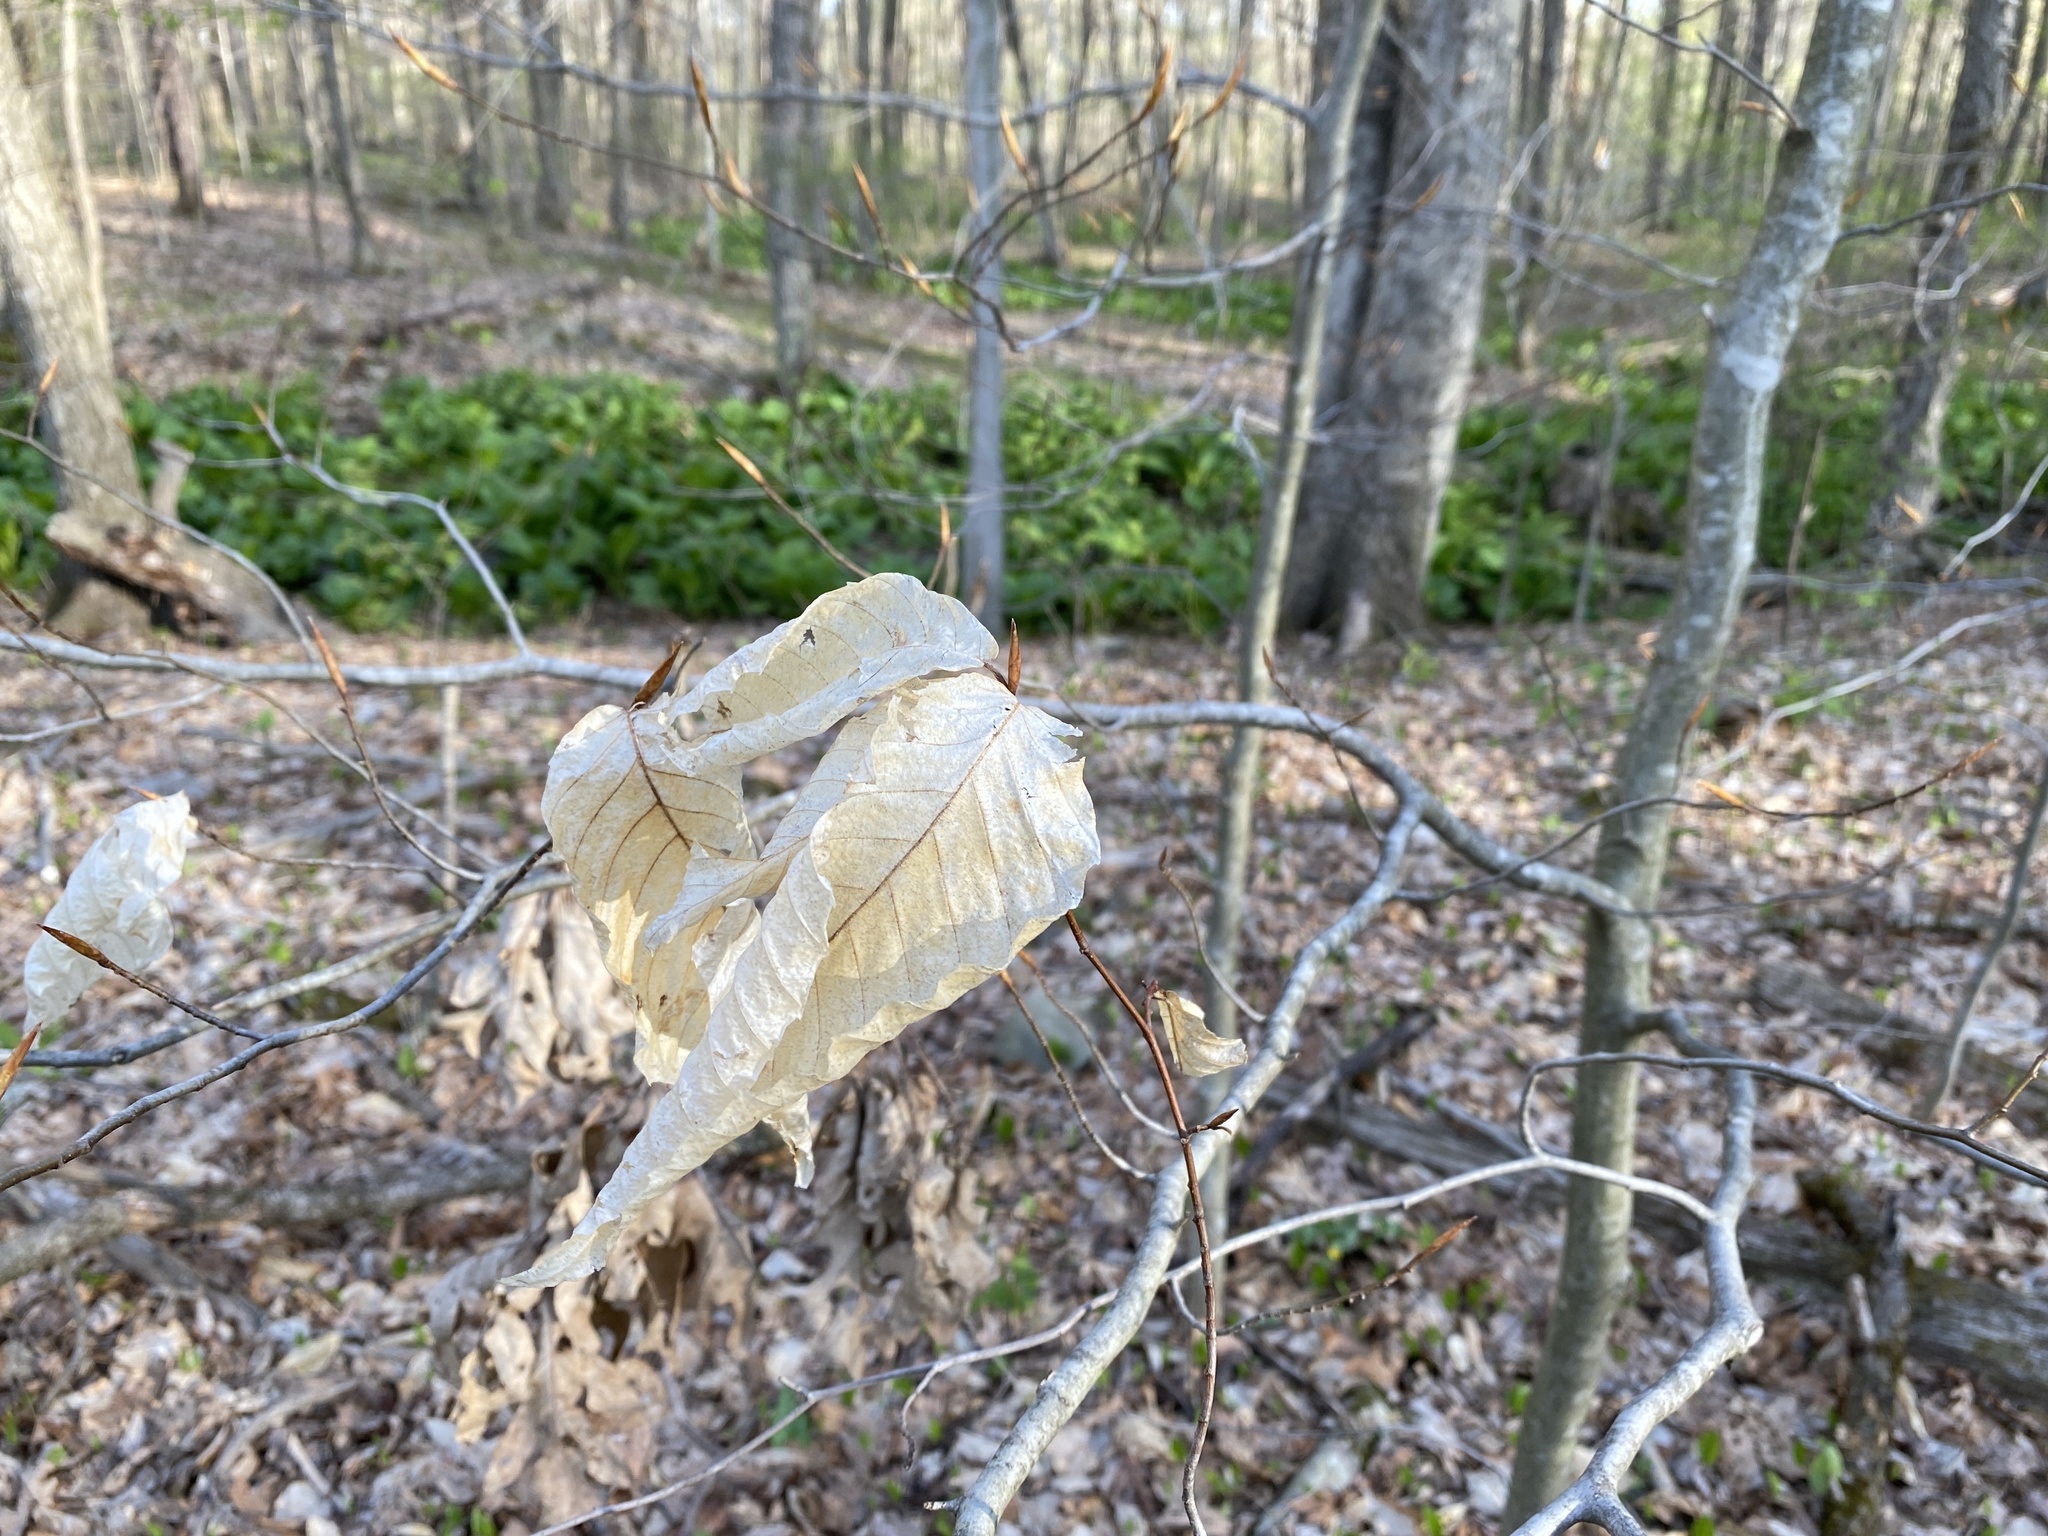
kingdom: Plantae
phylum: Tracheophyta
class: Magnoliopsida
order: Fagales
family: Fagaceae
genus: Fagus
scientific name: Fagus grandifolia
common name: American beech
